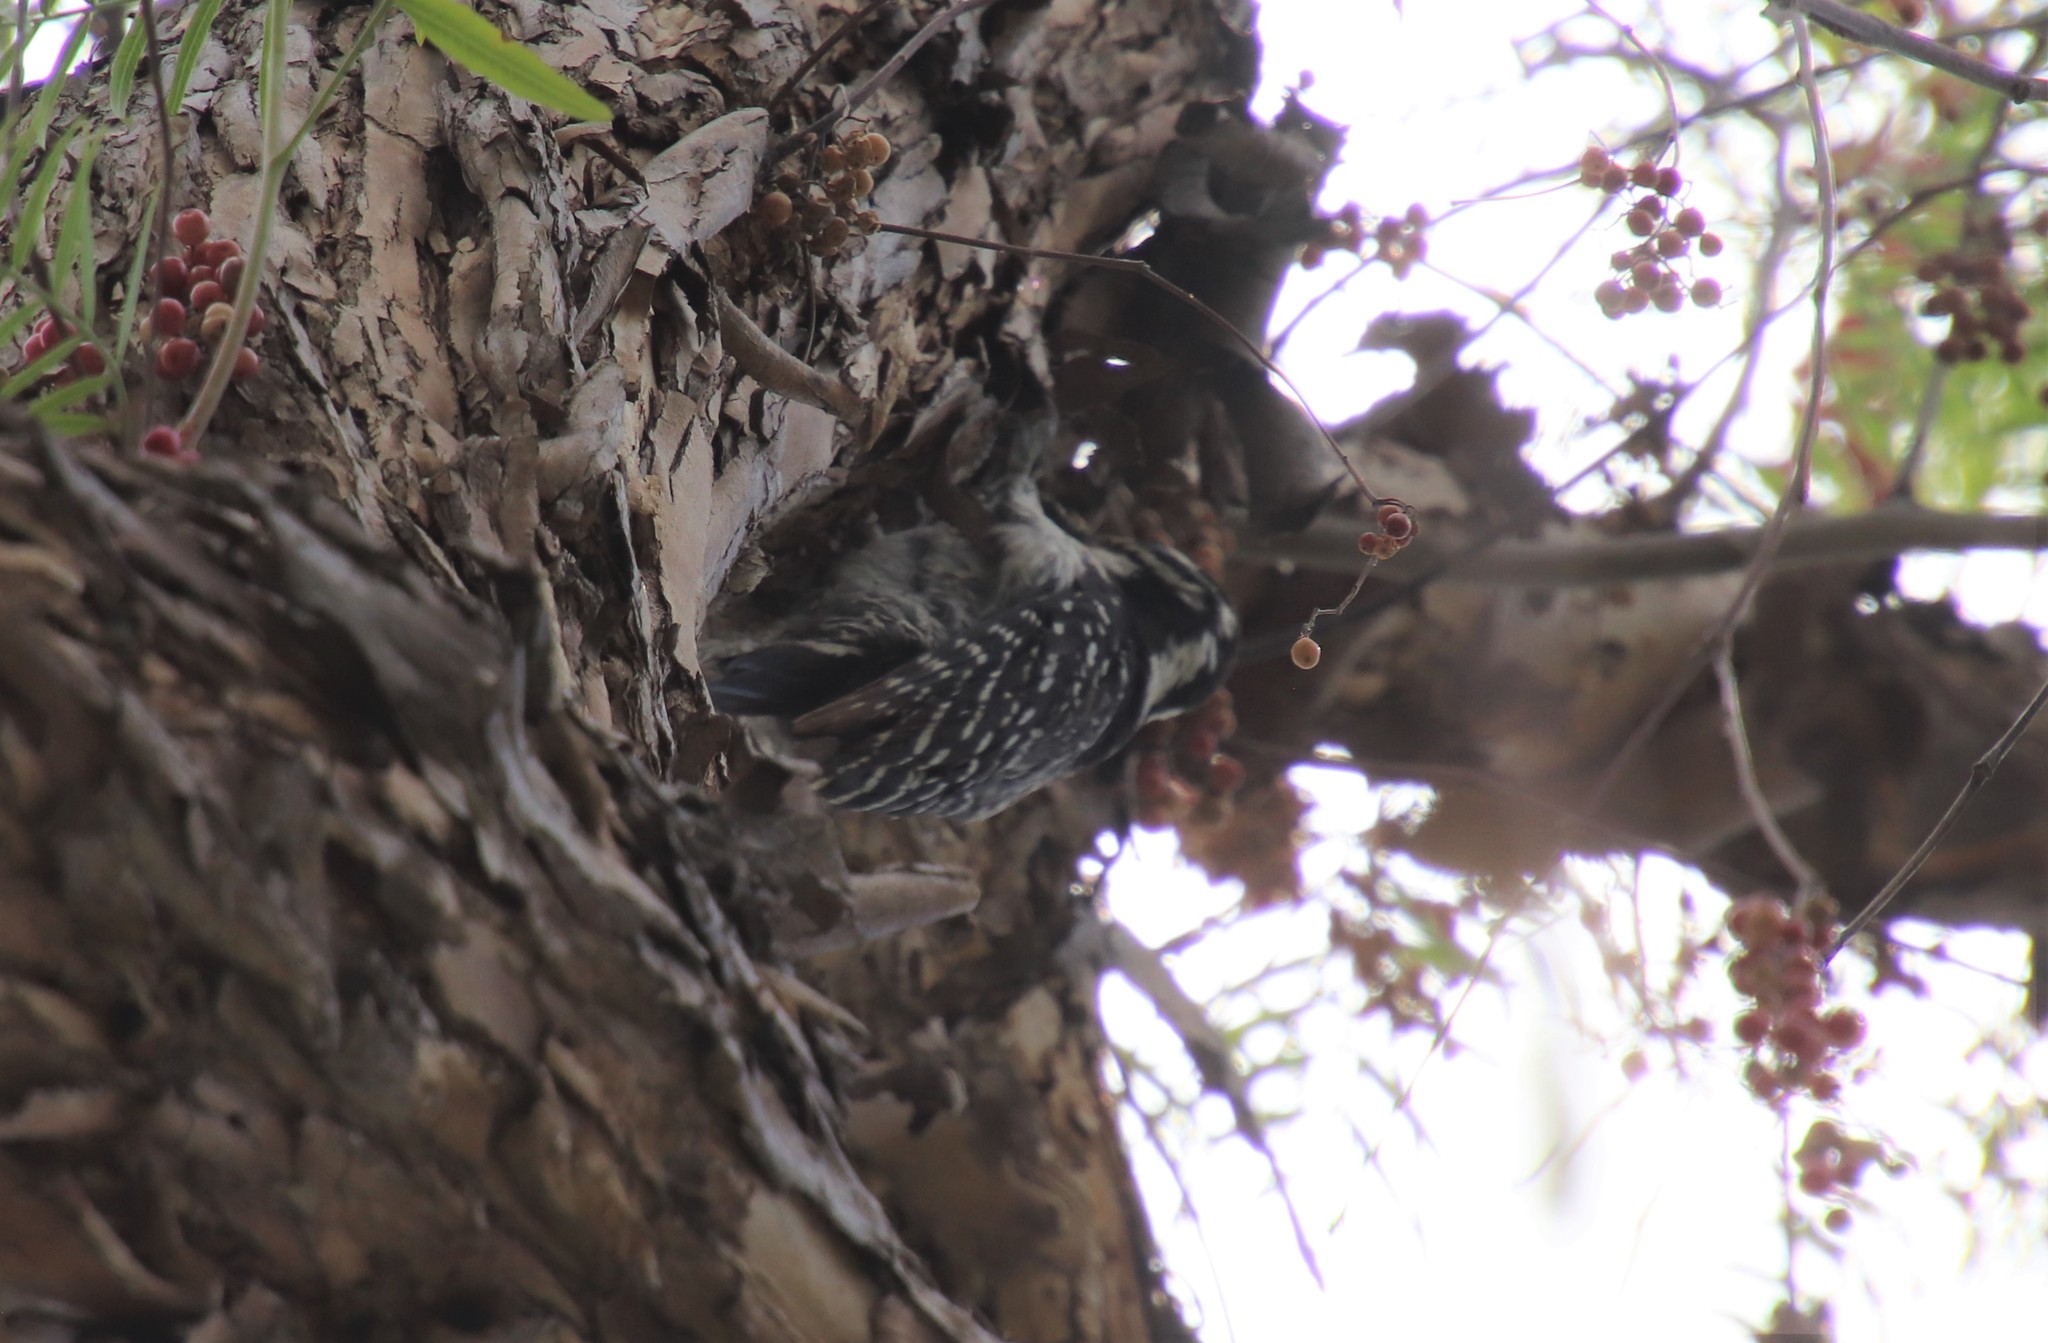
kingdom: Animalia
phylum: Chordata
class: Aves
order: Piciformes
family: Picidae
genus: Dryobates
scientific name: Dryobates nuttallii
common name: Nuttall's woodpecker
